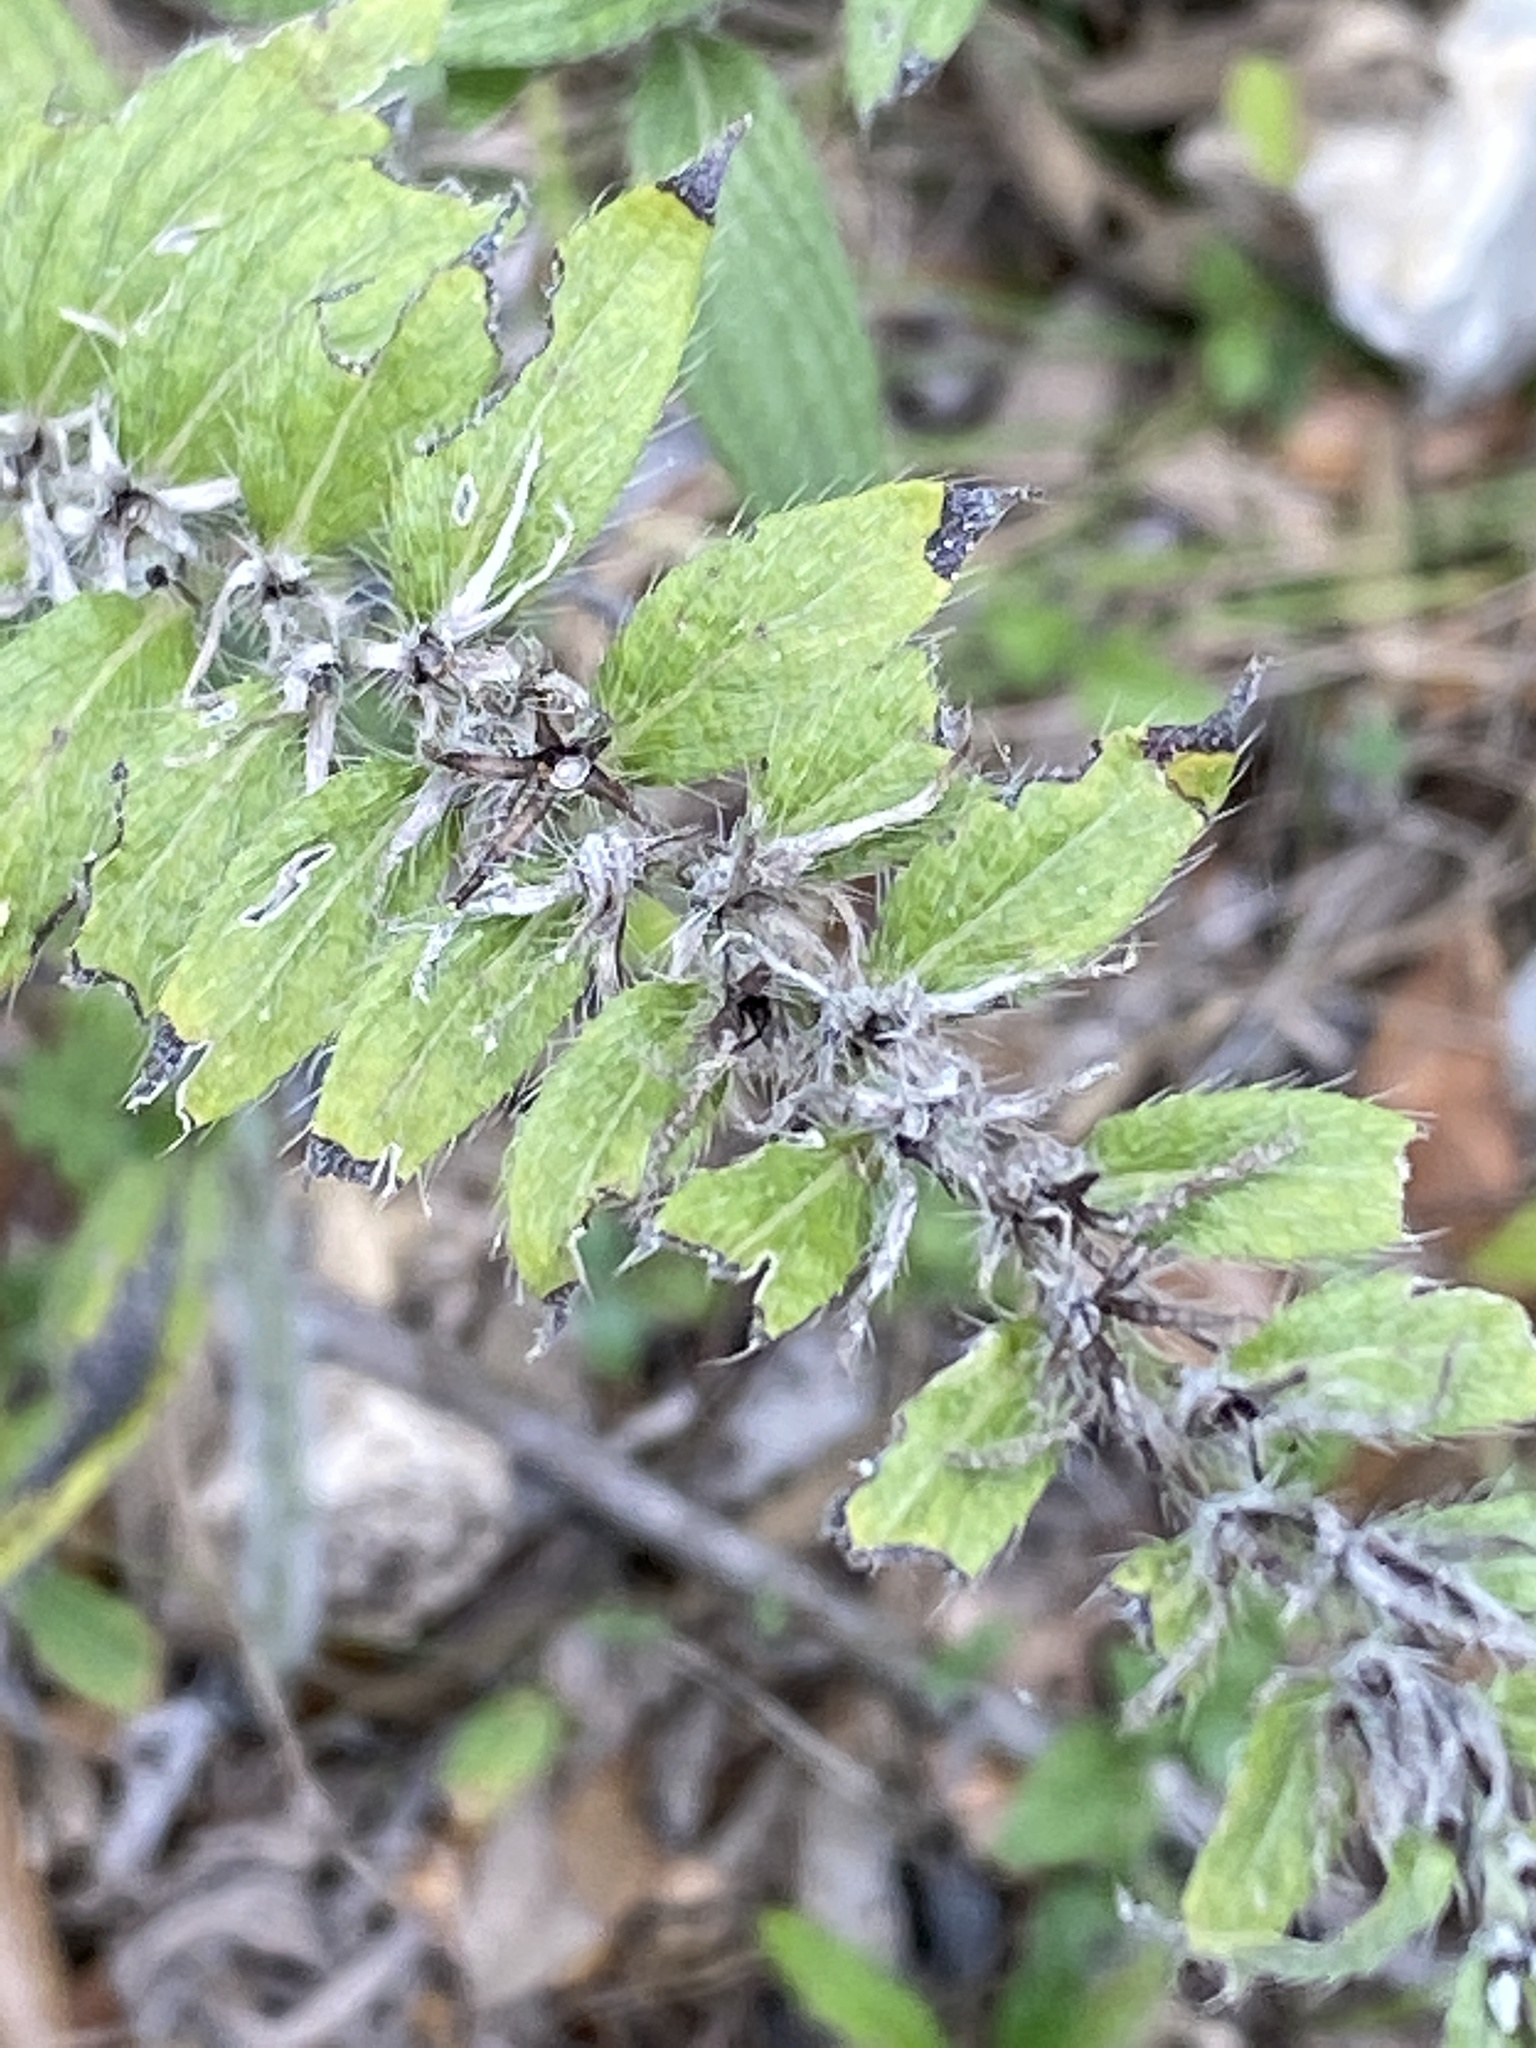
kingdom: Plantae
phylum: Tracheophyta
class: Magnoliopsida
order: Boraginales
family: Boraginaceae
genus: Lithospermum
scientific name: Lithospermum caroliniense
